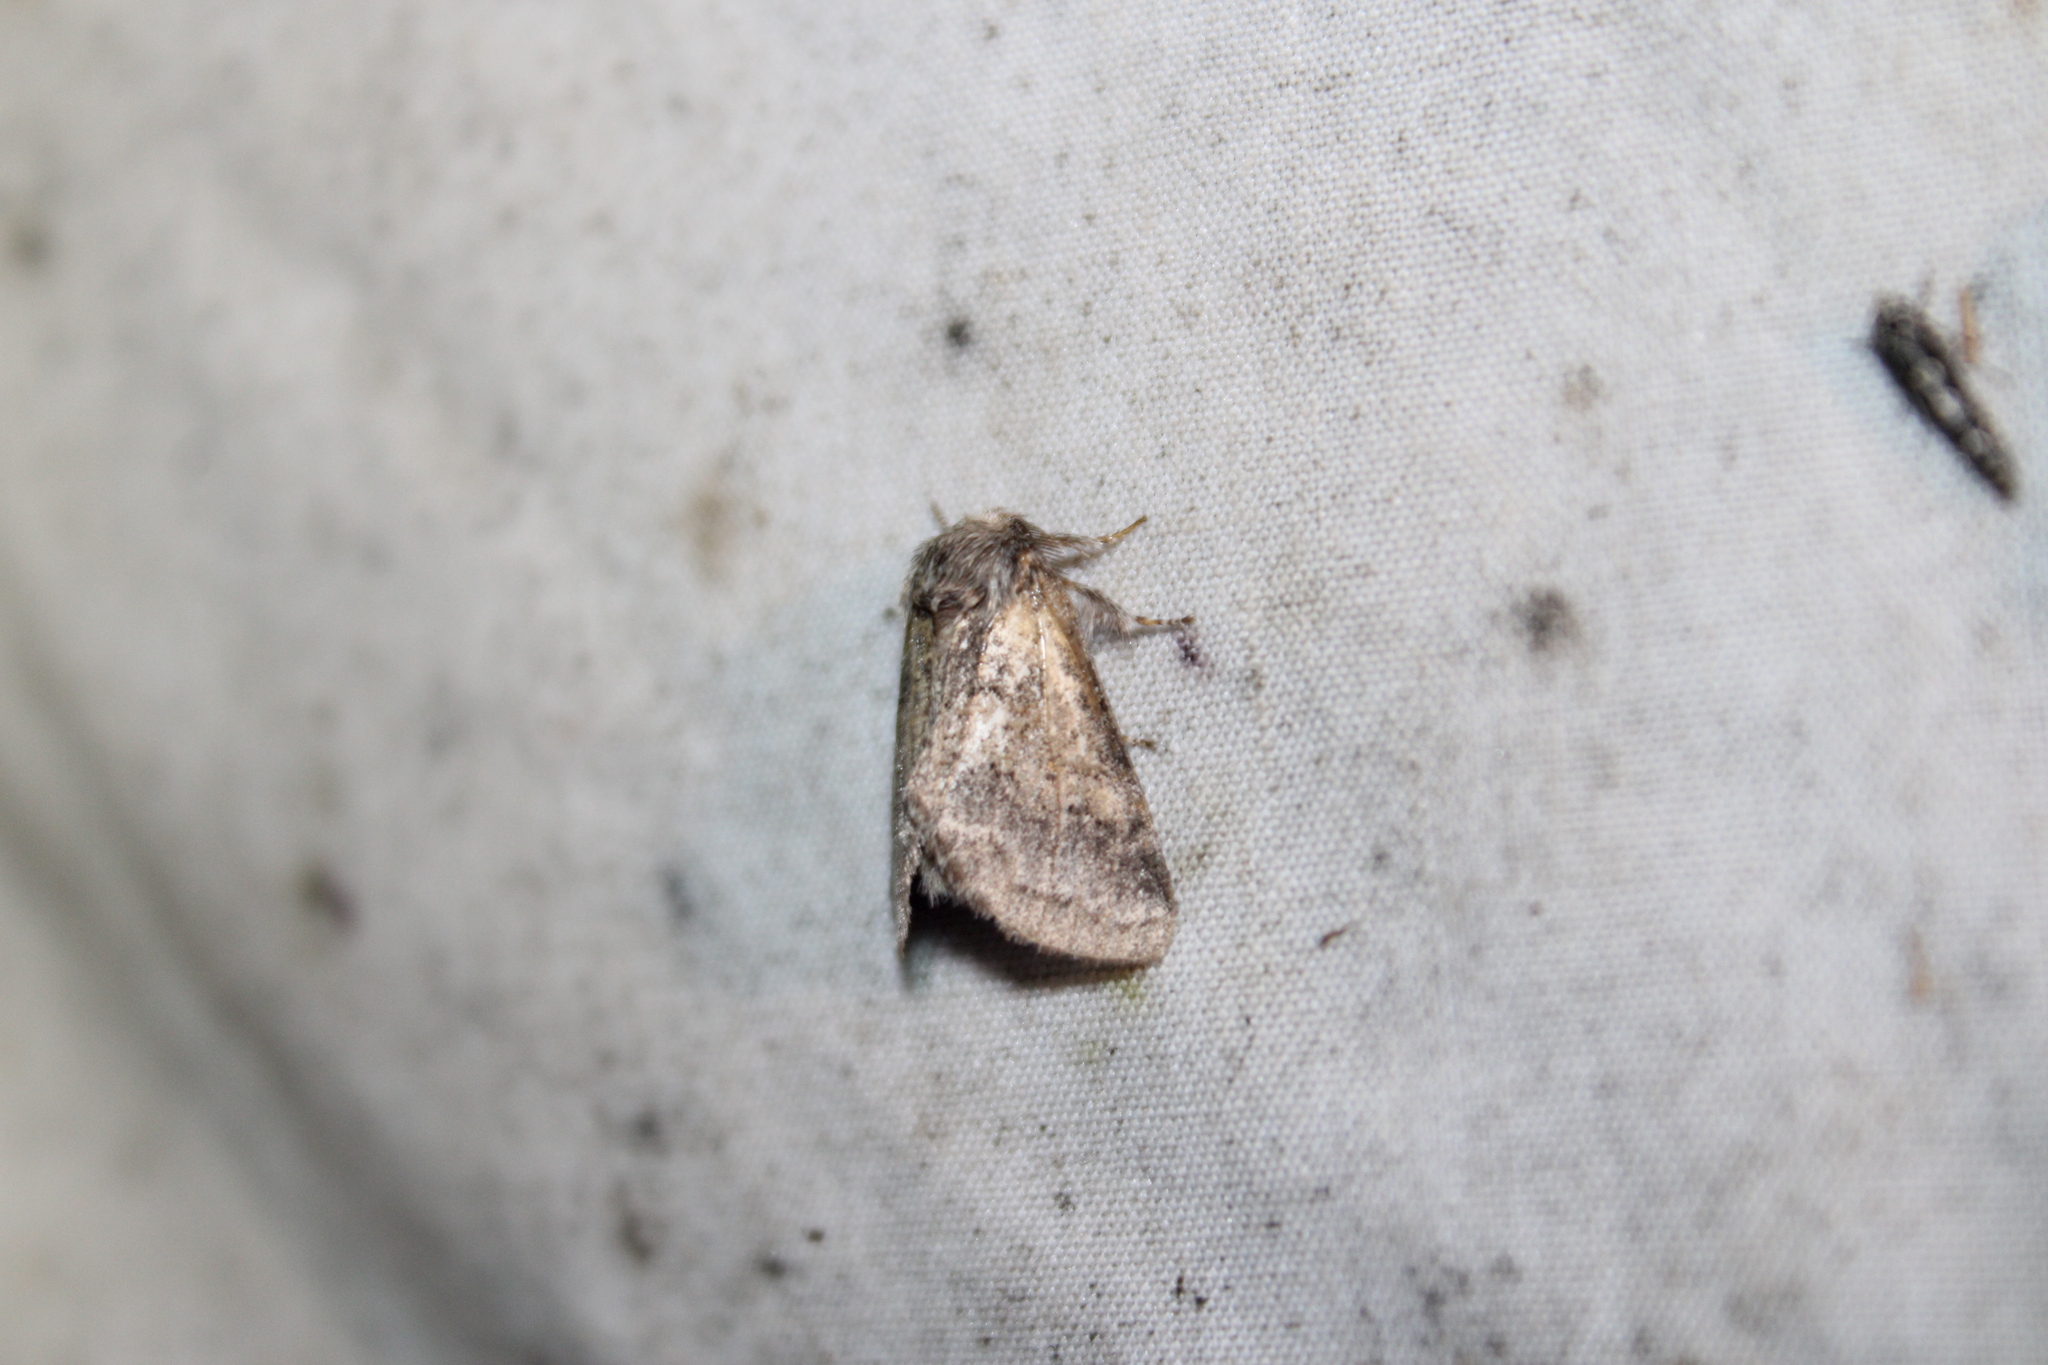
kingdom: Animalia
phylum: Arthropoda
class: Insecta
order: Lepidoptera
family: Notodontidae
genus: Gluphisia
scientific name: Gluphisia septentrionis
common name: Common gluphisia
